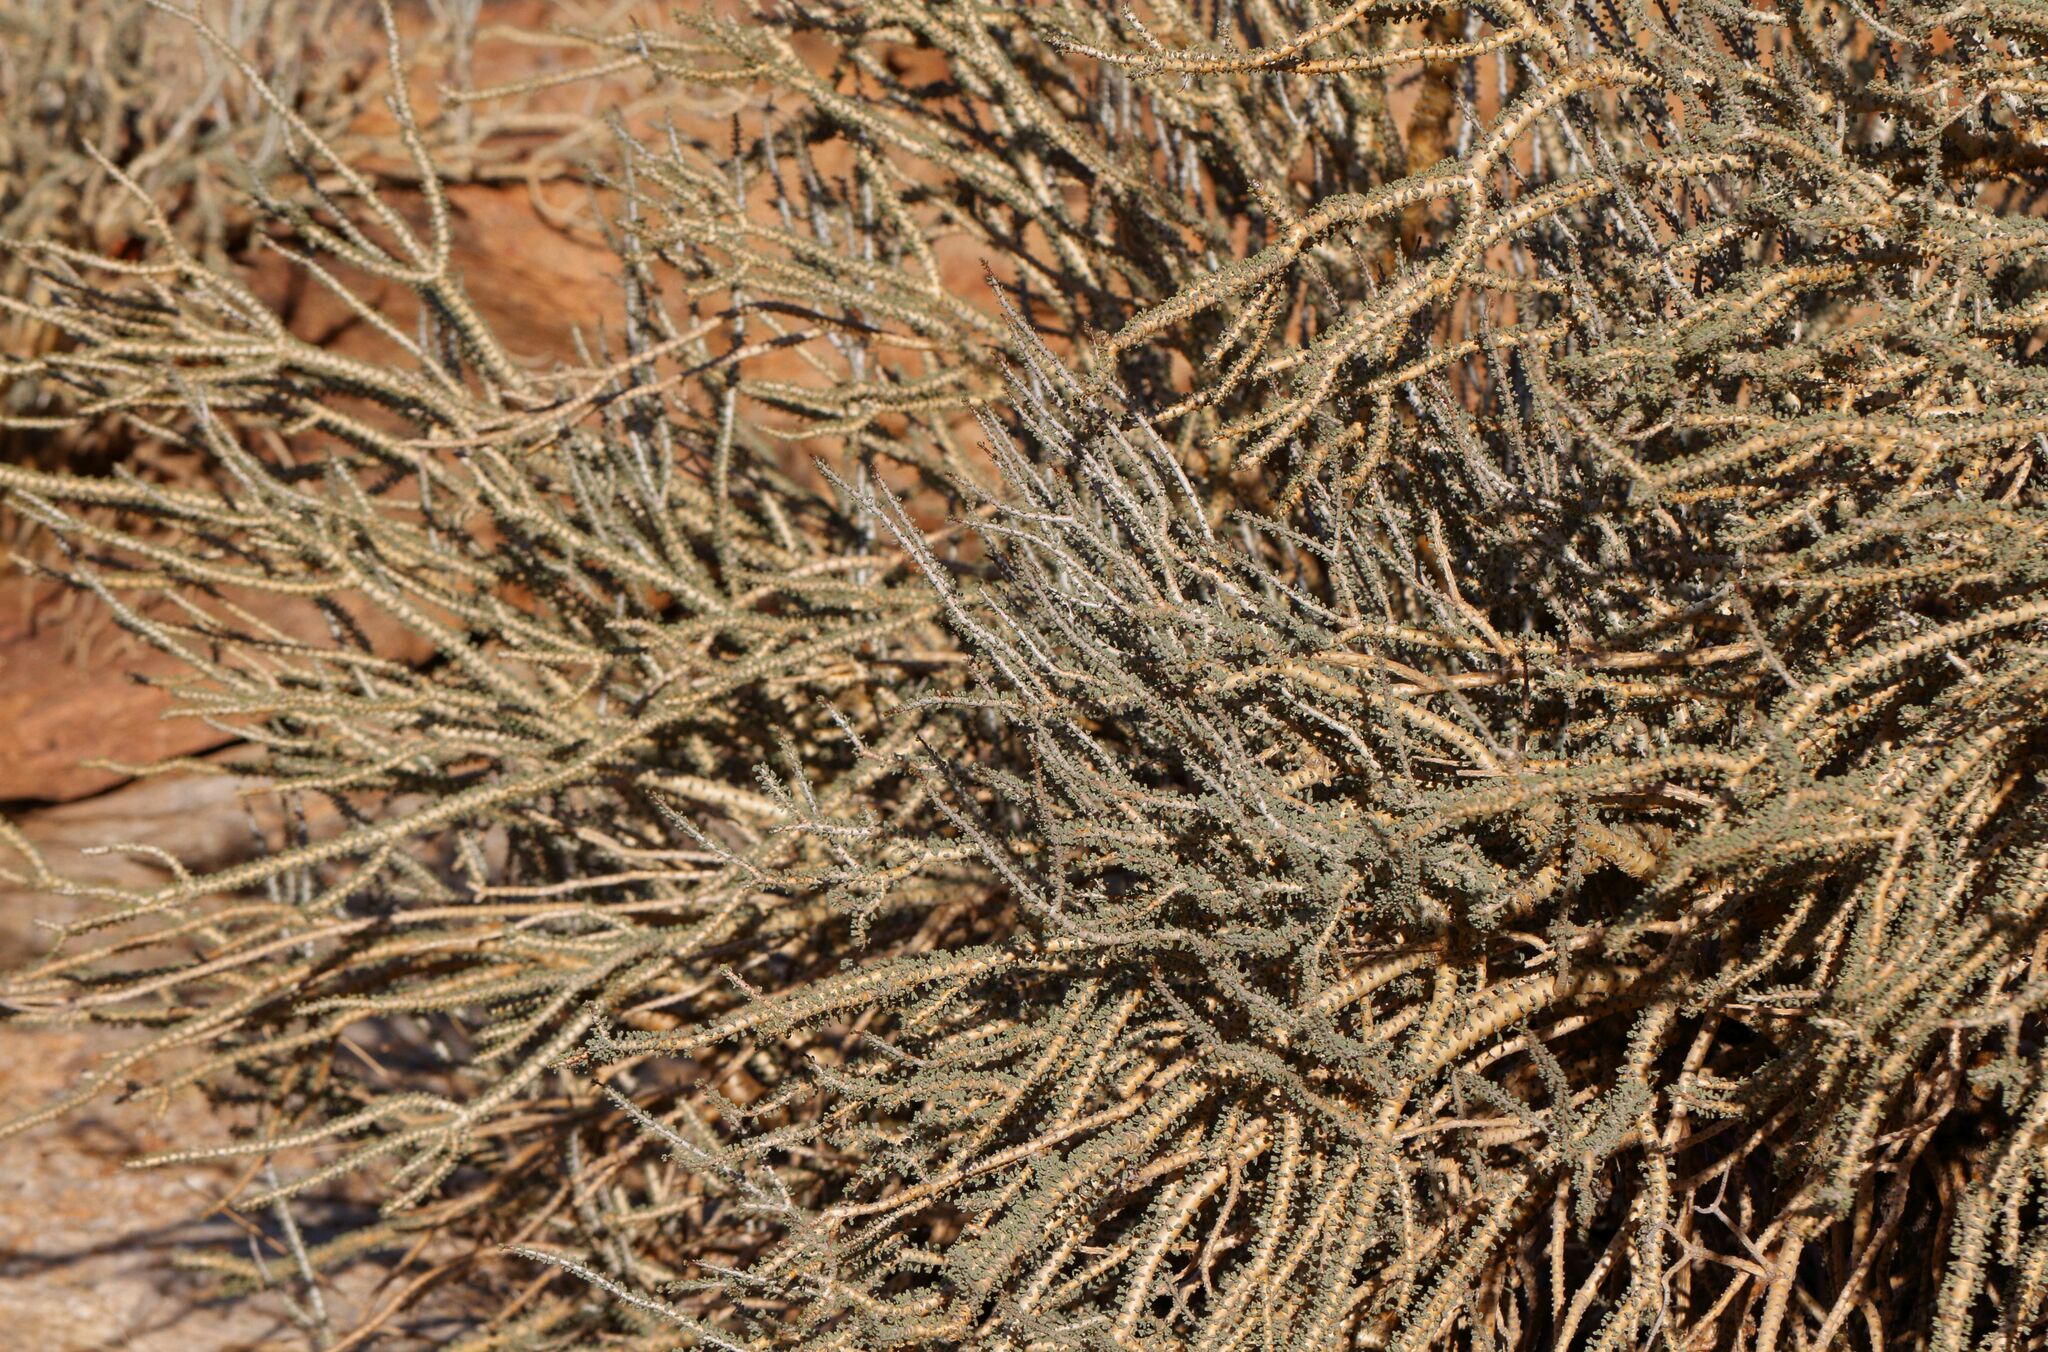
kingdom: Plantae
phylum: Tracheophyta
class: Magnoliopsida
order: Caryophyllales
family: Didiereaceae
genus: Portulacaria
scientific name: Portulacaria namaquensis
